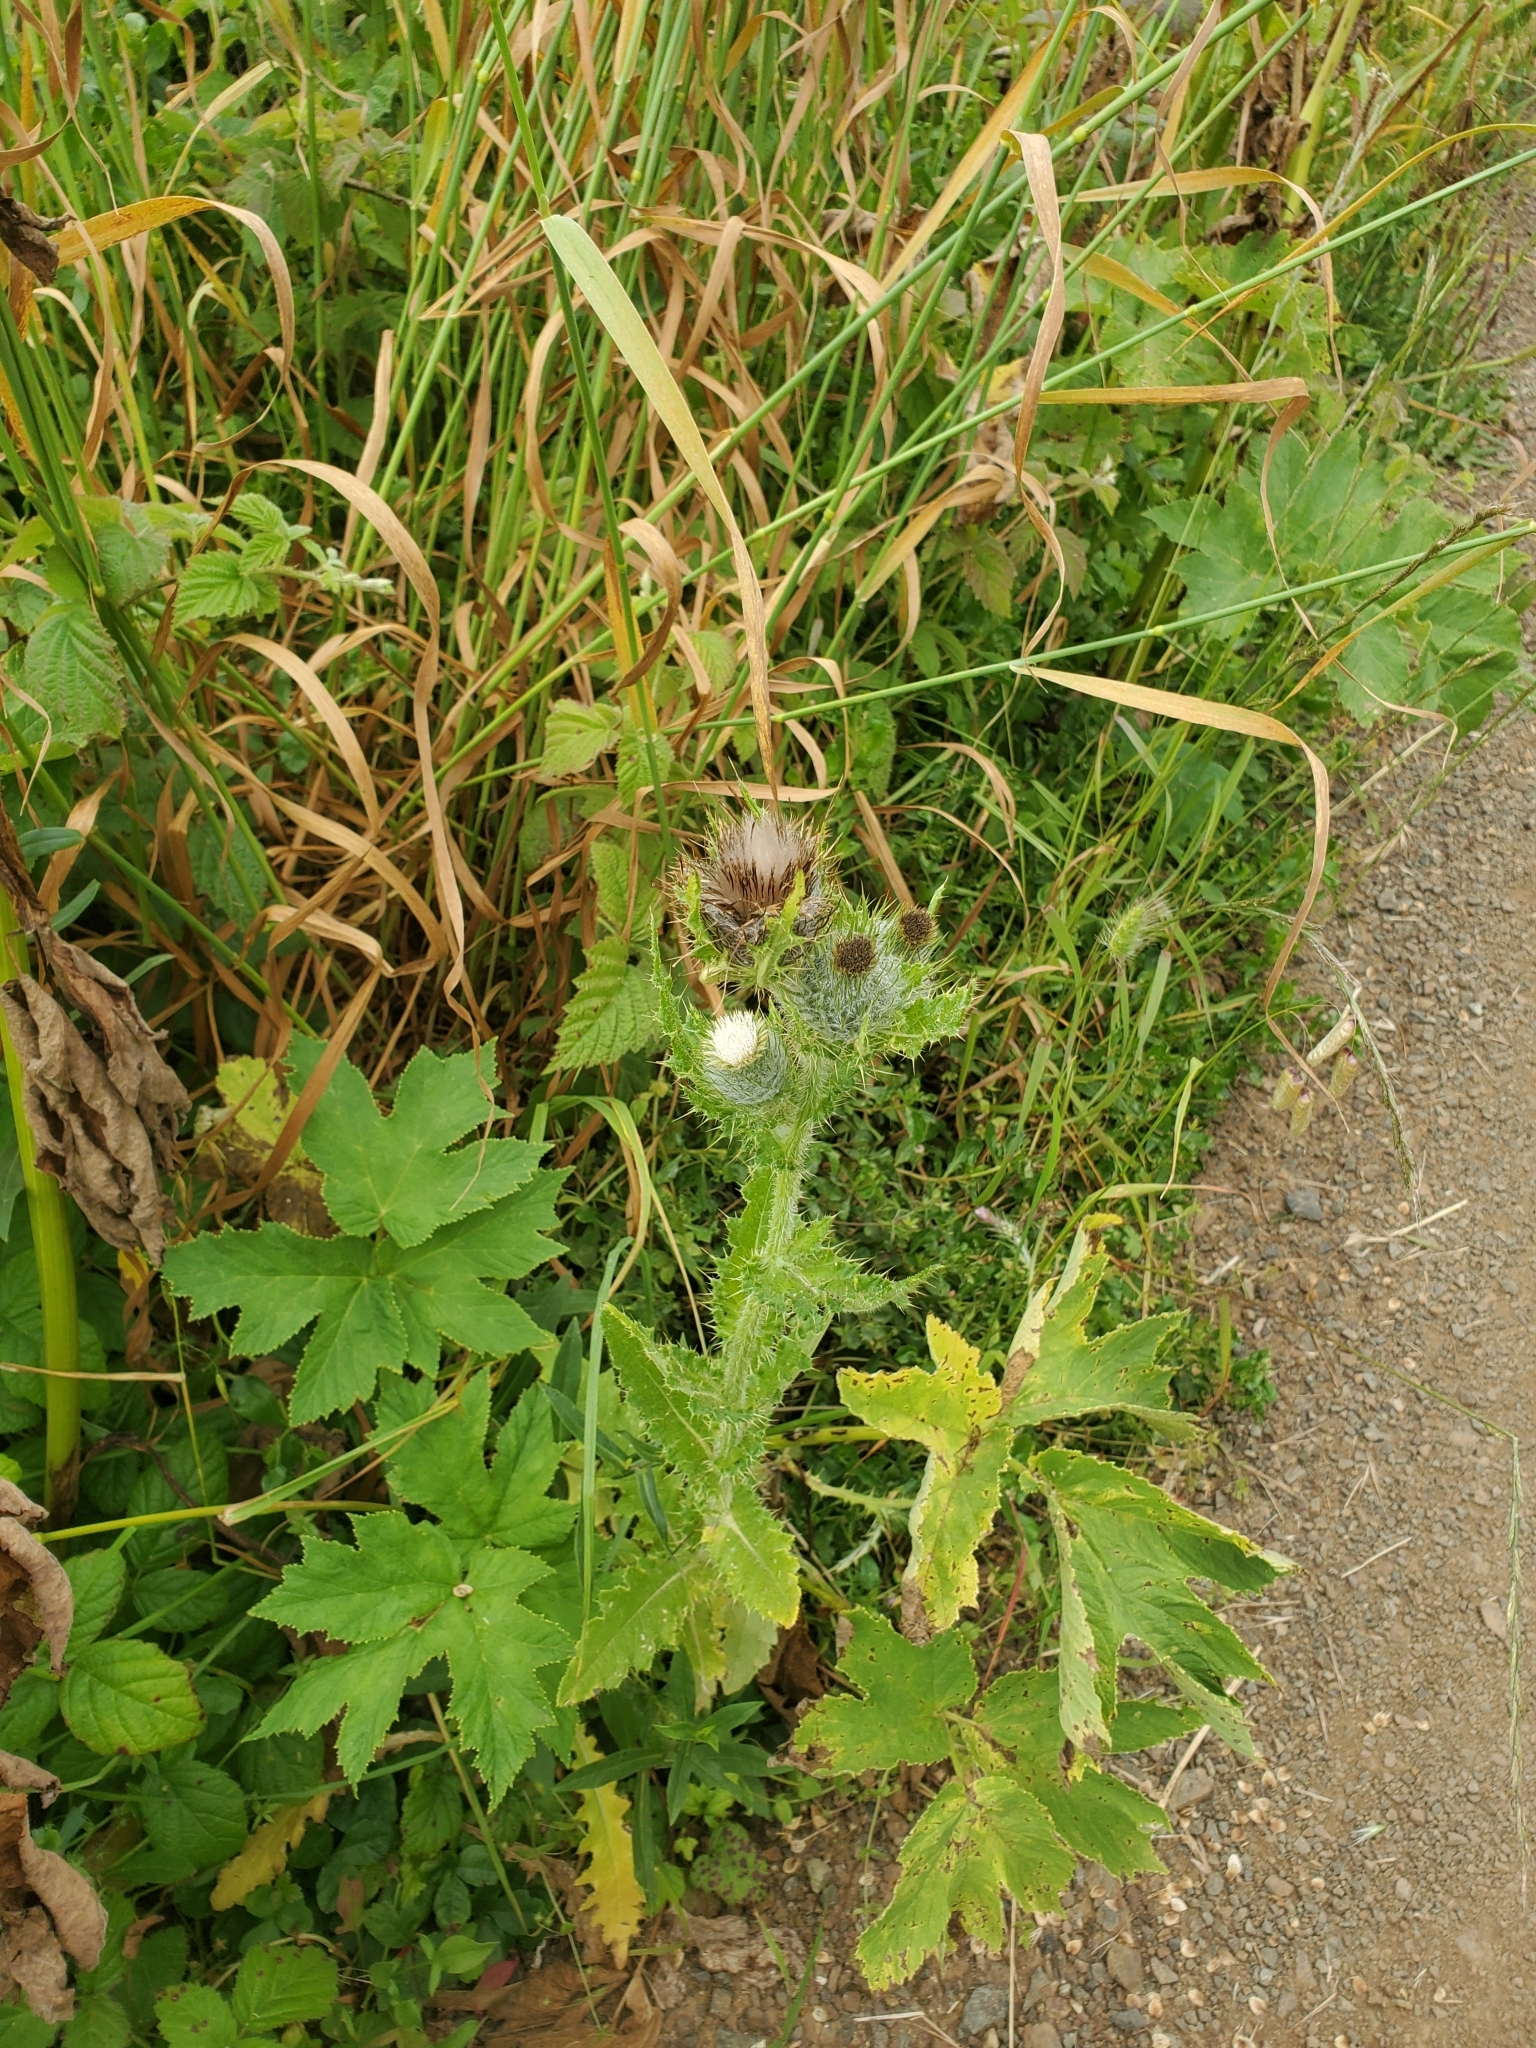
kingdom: Plantae
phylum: Tracheophyta
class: Magnoliopsida
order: Asterales
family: Asteraceae
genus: Cirsium
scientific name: Cirsium brevistylum
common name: Indian thistle
